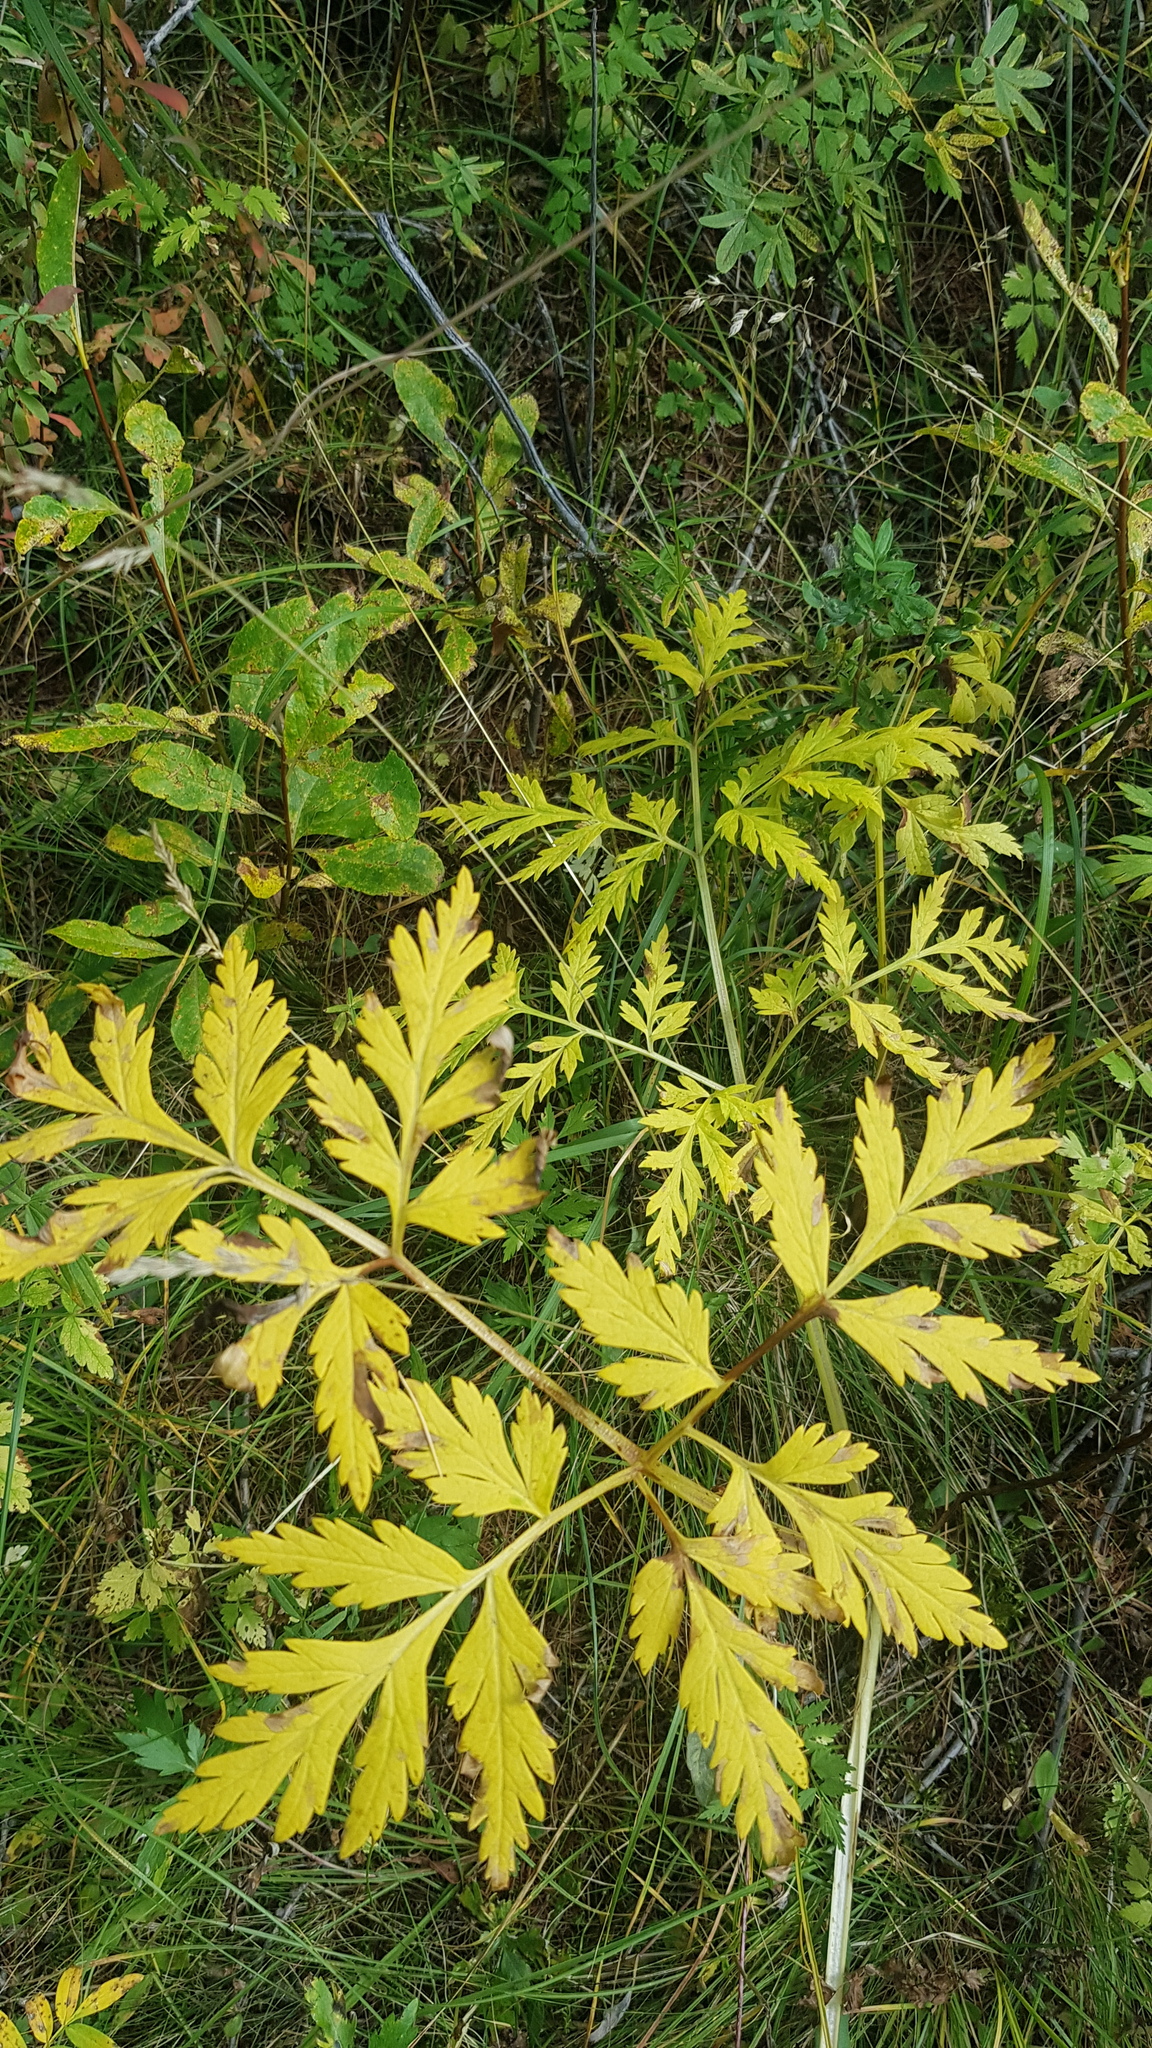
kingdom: Plantae
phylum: Tracheophyta
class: Magnoliopsida
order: Apiales
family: Apiaceae
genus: Conioselinum
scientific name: Conioselinum tataricum
